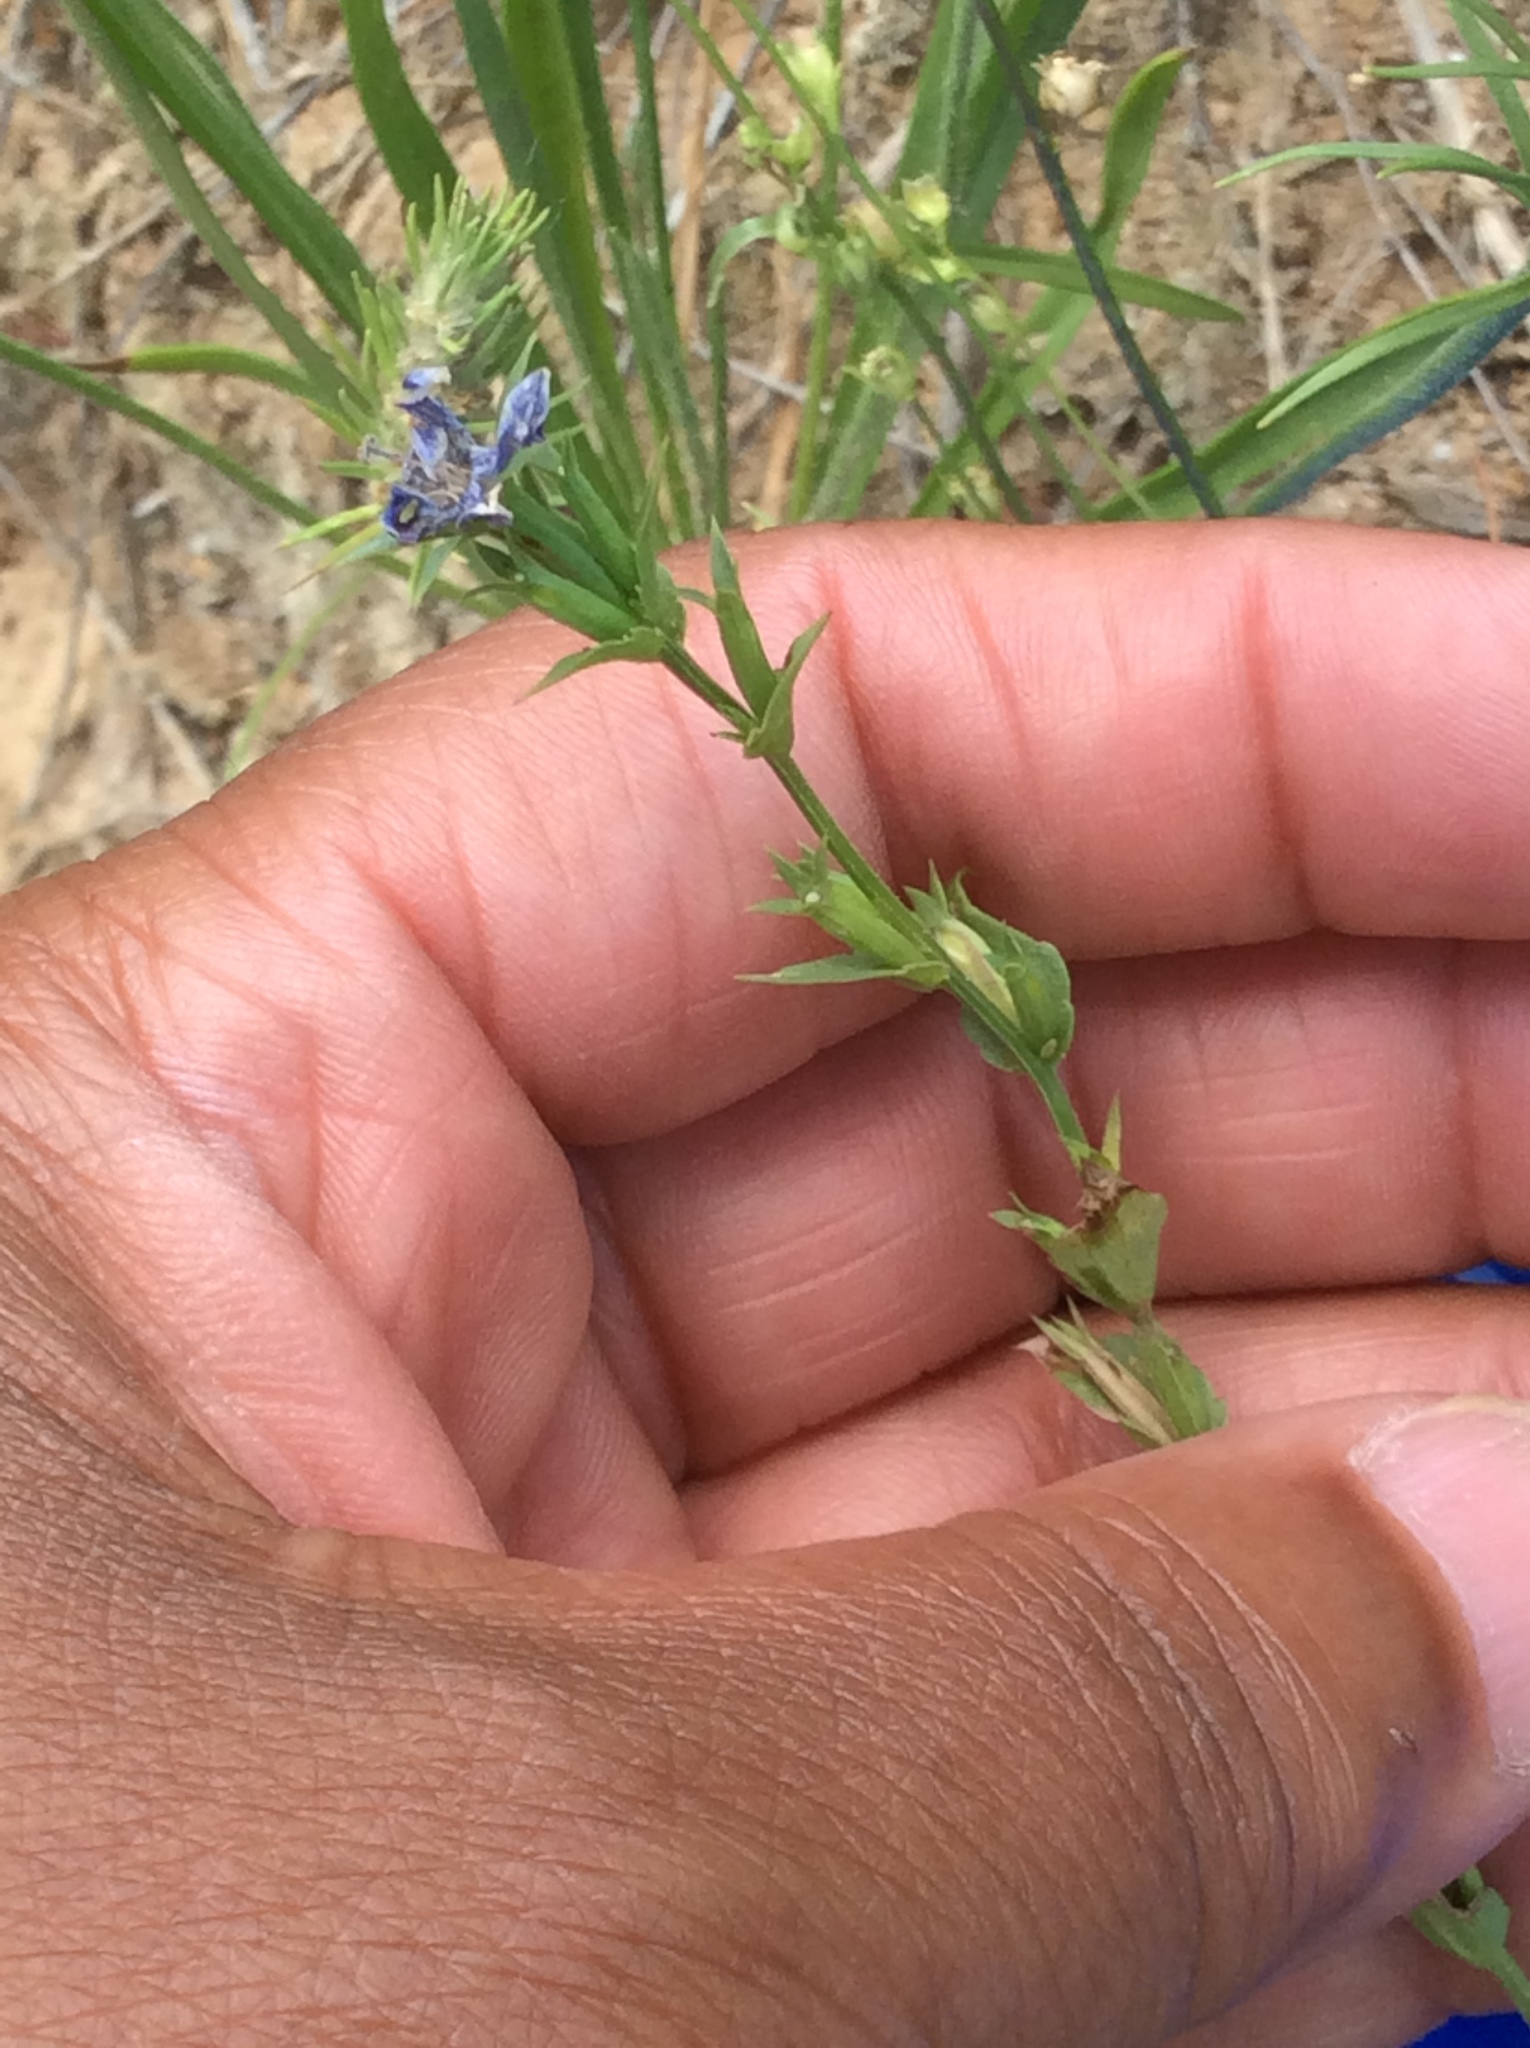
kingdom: Plantae
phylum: Tracheophyta
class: Magnoliopsida
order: Asterales
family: Campanulaceae
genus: Triodanis
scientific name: Triodanis biflora
